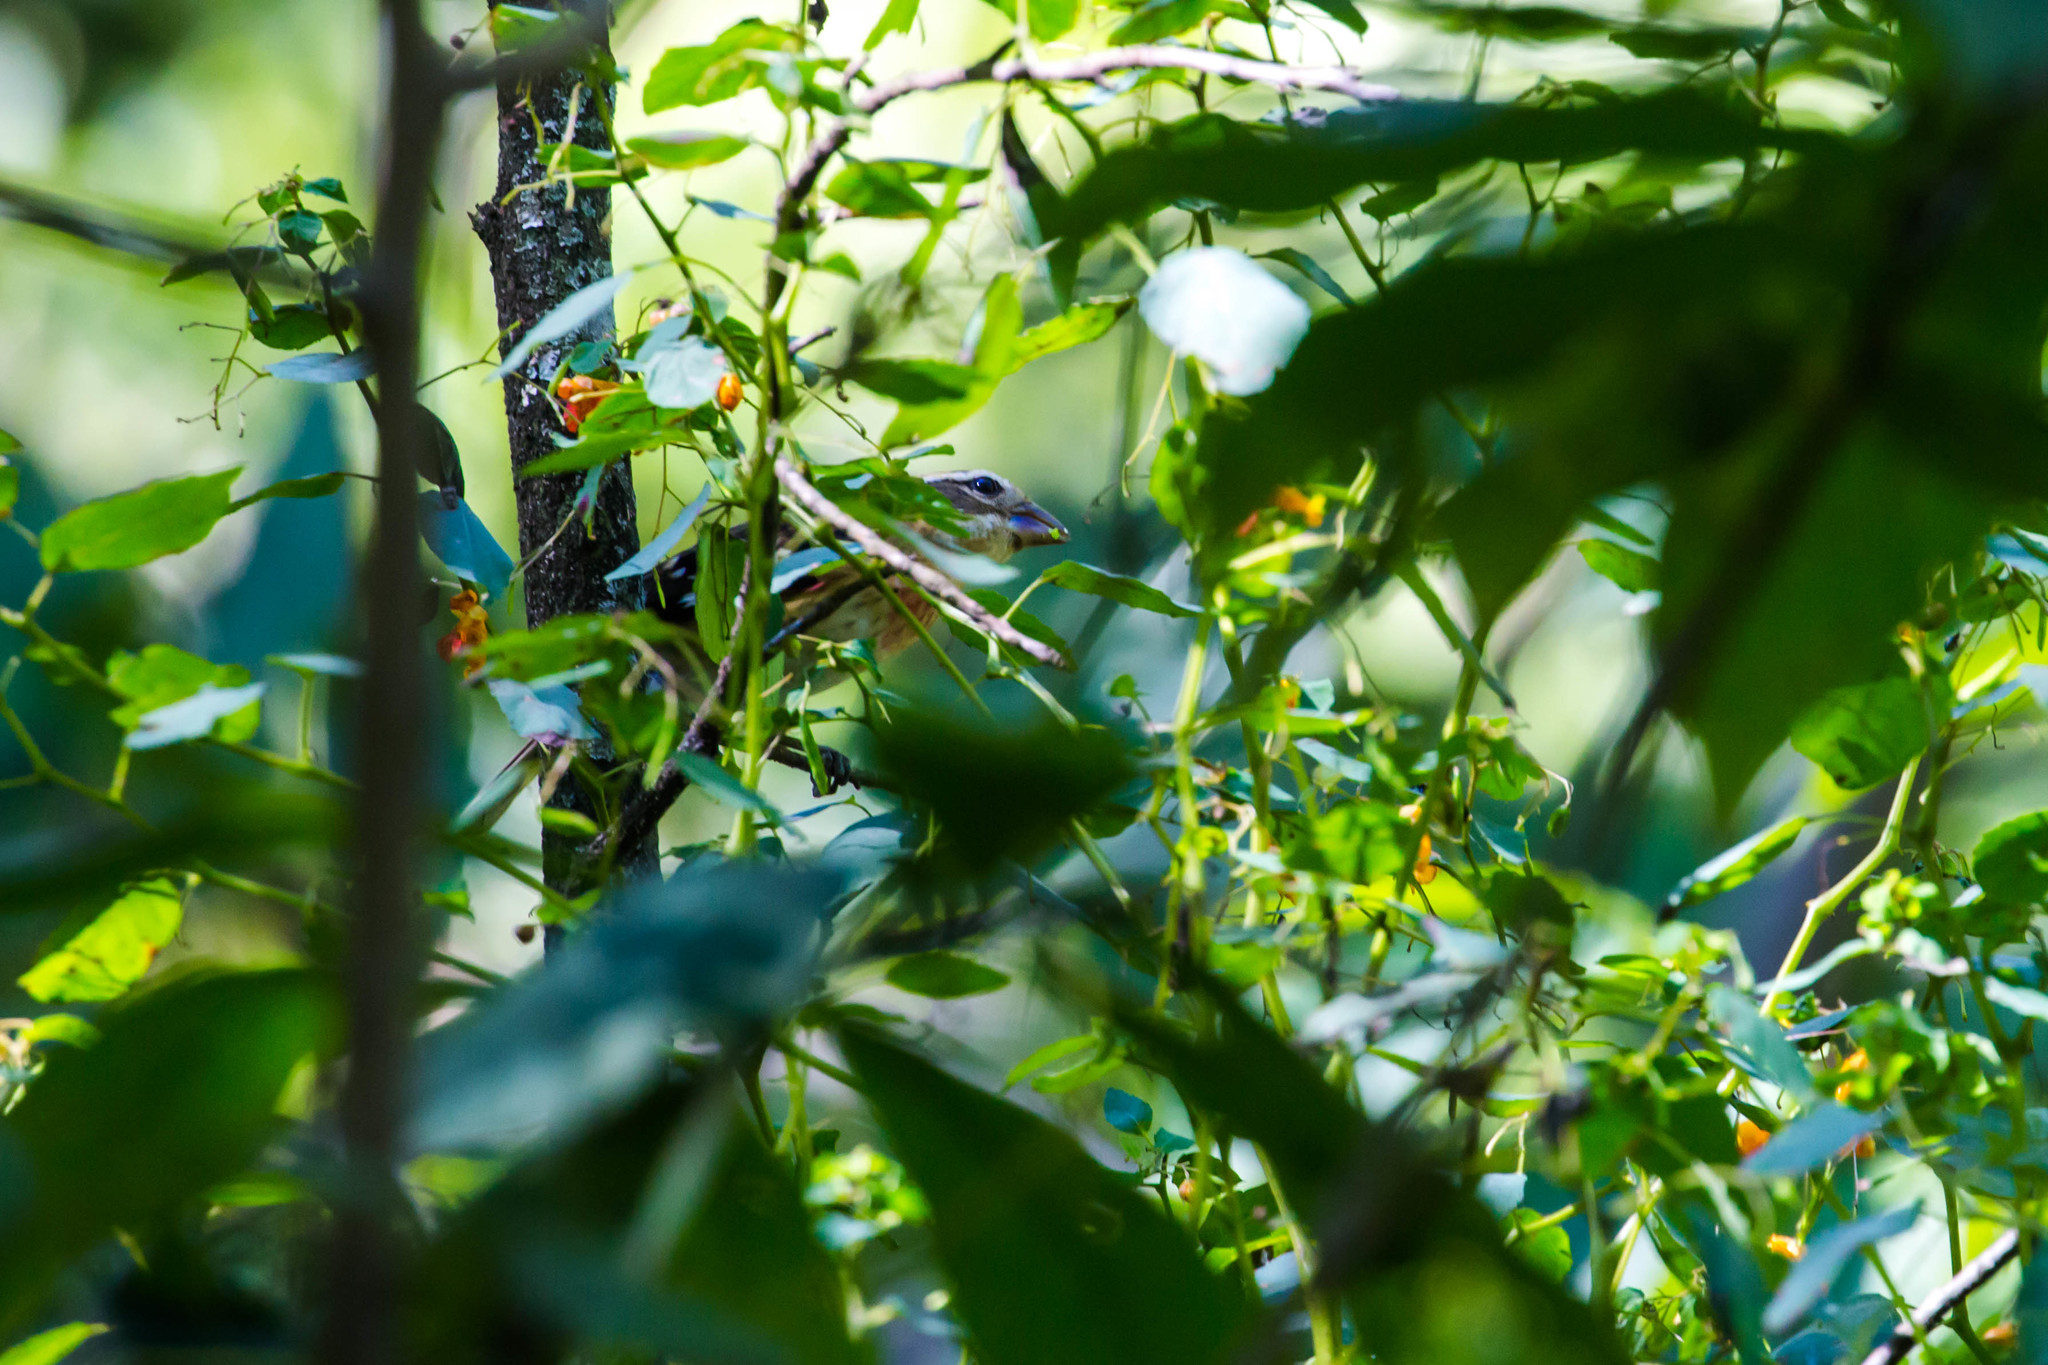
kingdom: Animalia
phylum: Chordata
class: Aves
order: Passeriformes
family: Cardinalidae
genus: Pheucticus
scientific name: Pheucticus ludovicianus
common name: Rose-breasted grosbeak
